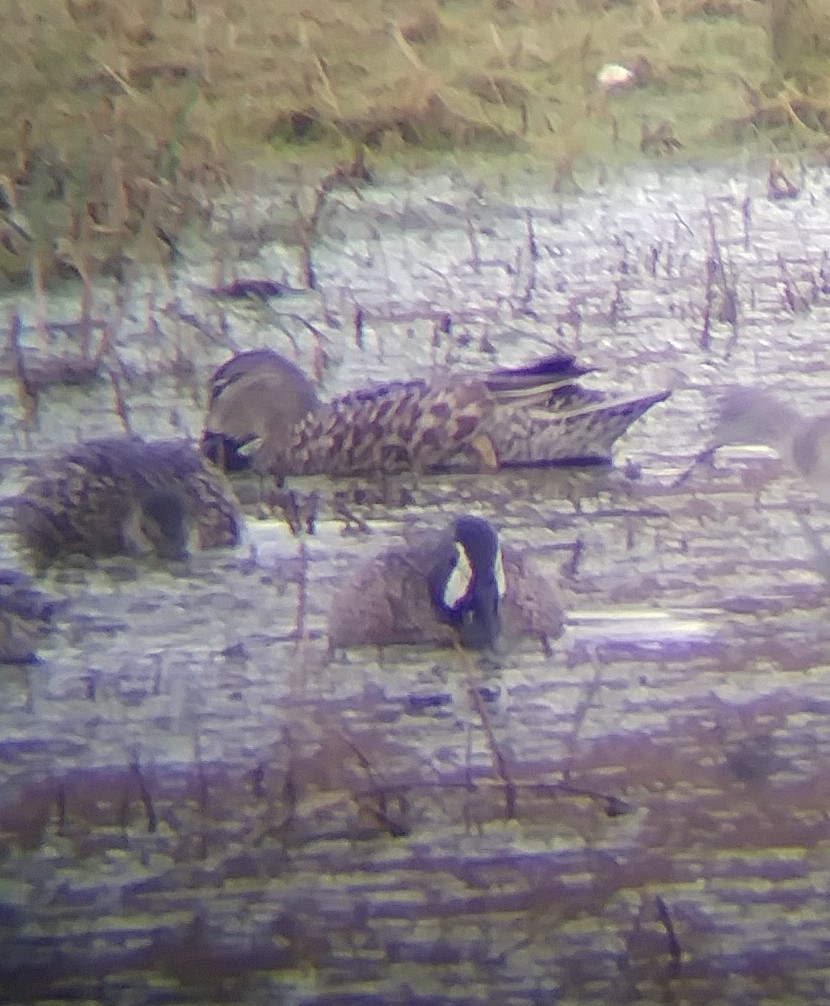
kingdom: Animalia
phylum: Chordata
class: Aves
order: Anseriformes
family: Anatidae
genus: Spatula
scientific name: Spatula discors
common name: Blue-winged teal
